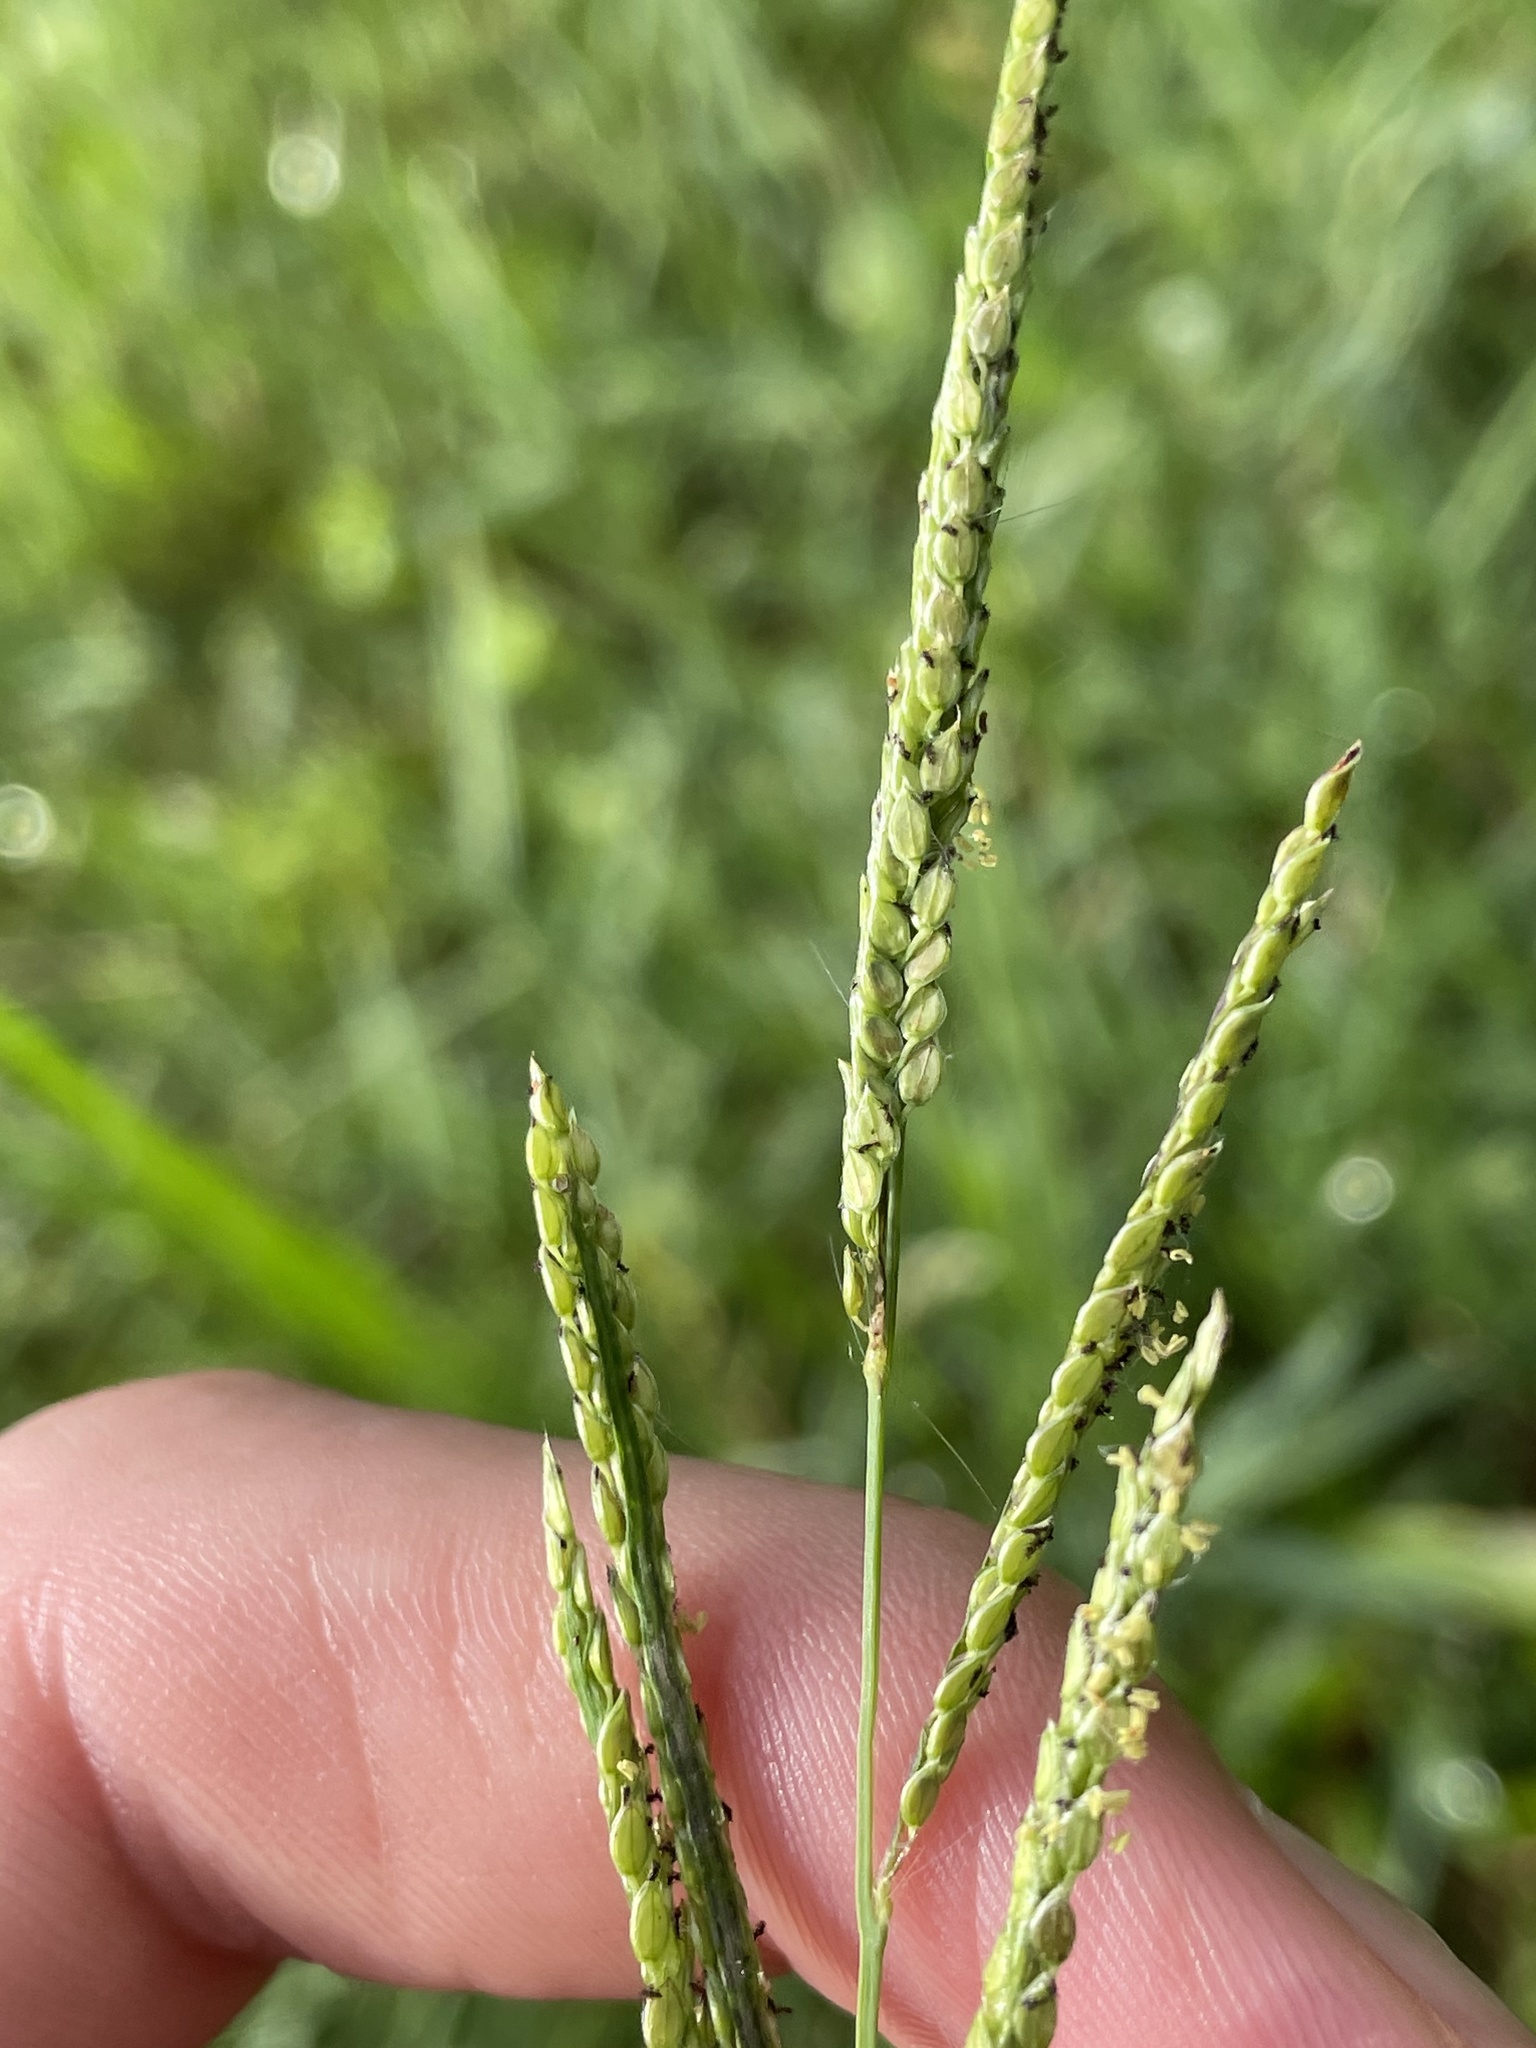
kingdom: Plantae
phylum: Tracheophyta
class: Liliopsida
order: Poales
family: Poaceae
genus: Paspalum
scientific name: Paspalum urvillei
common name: Vasey's grass
